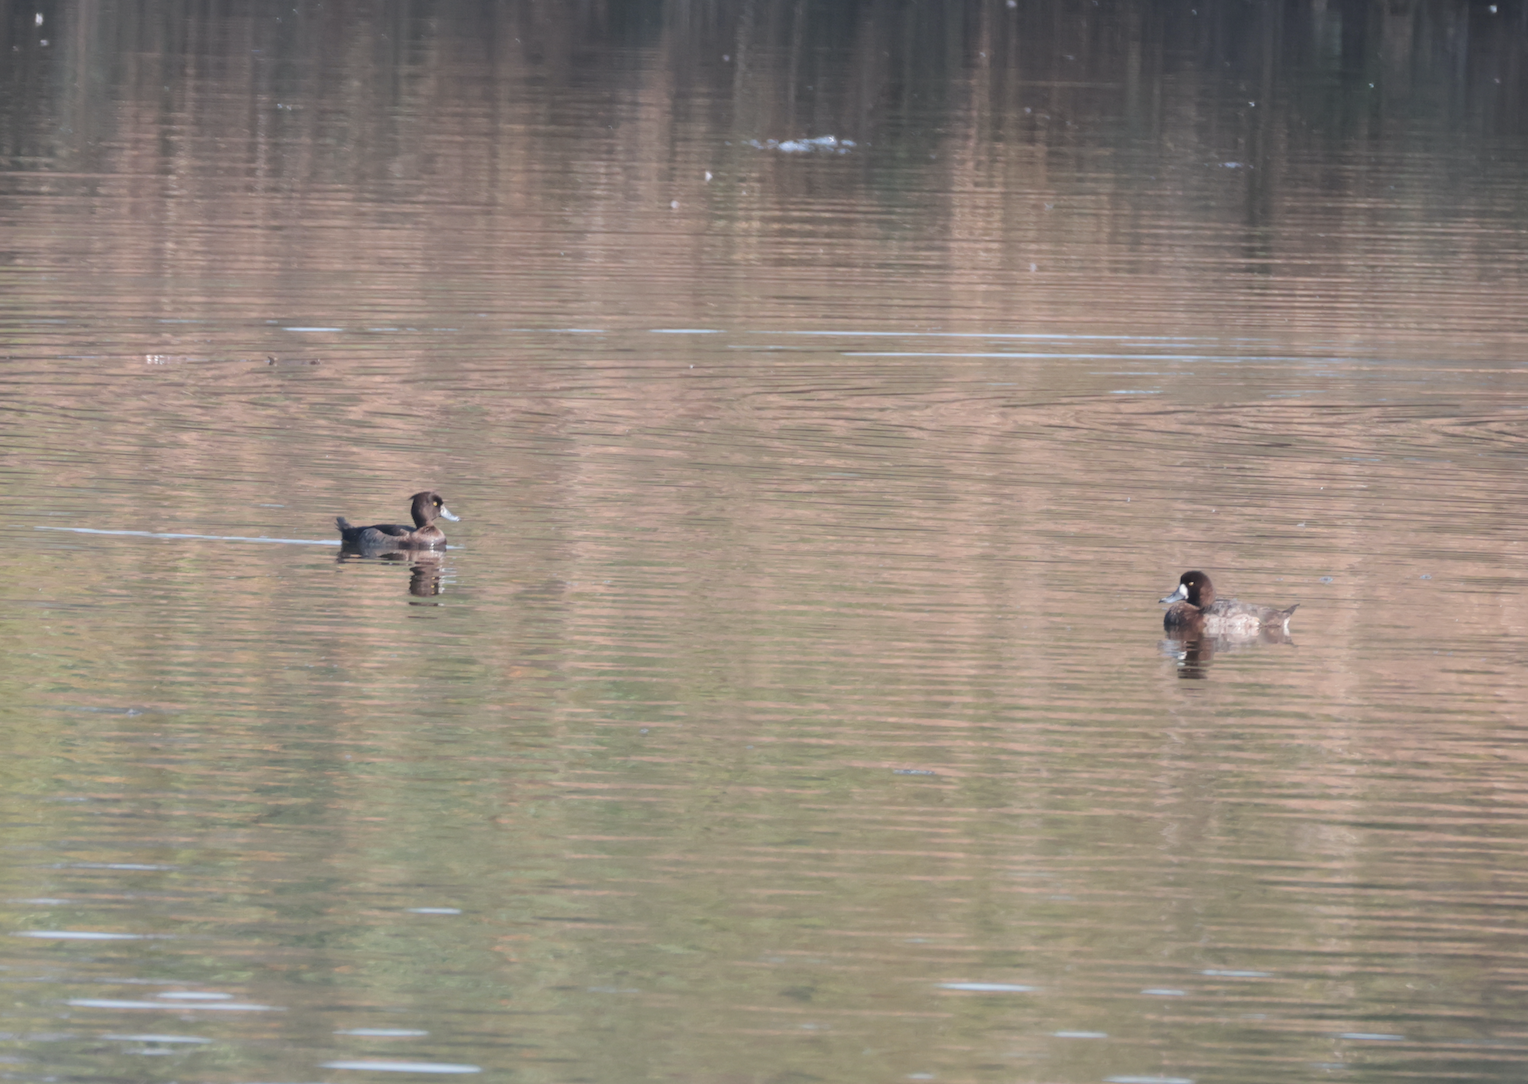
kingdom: Animalia
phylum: Chordata
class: Aves
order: Anseriformes
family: Anatidae
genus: Aythya
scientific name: Aythya marila
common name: Greater scaup
